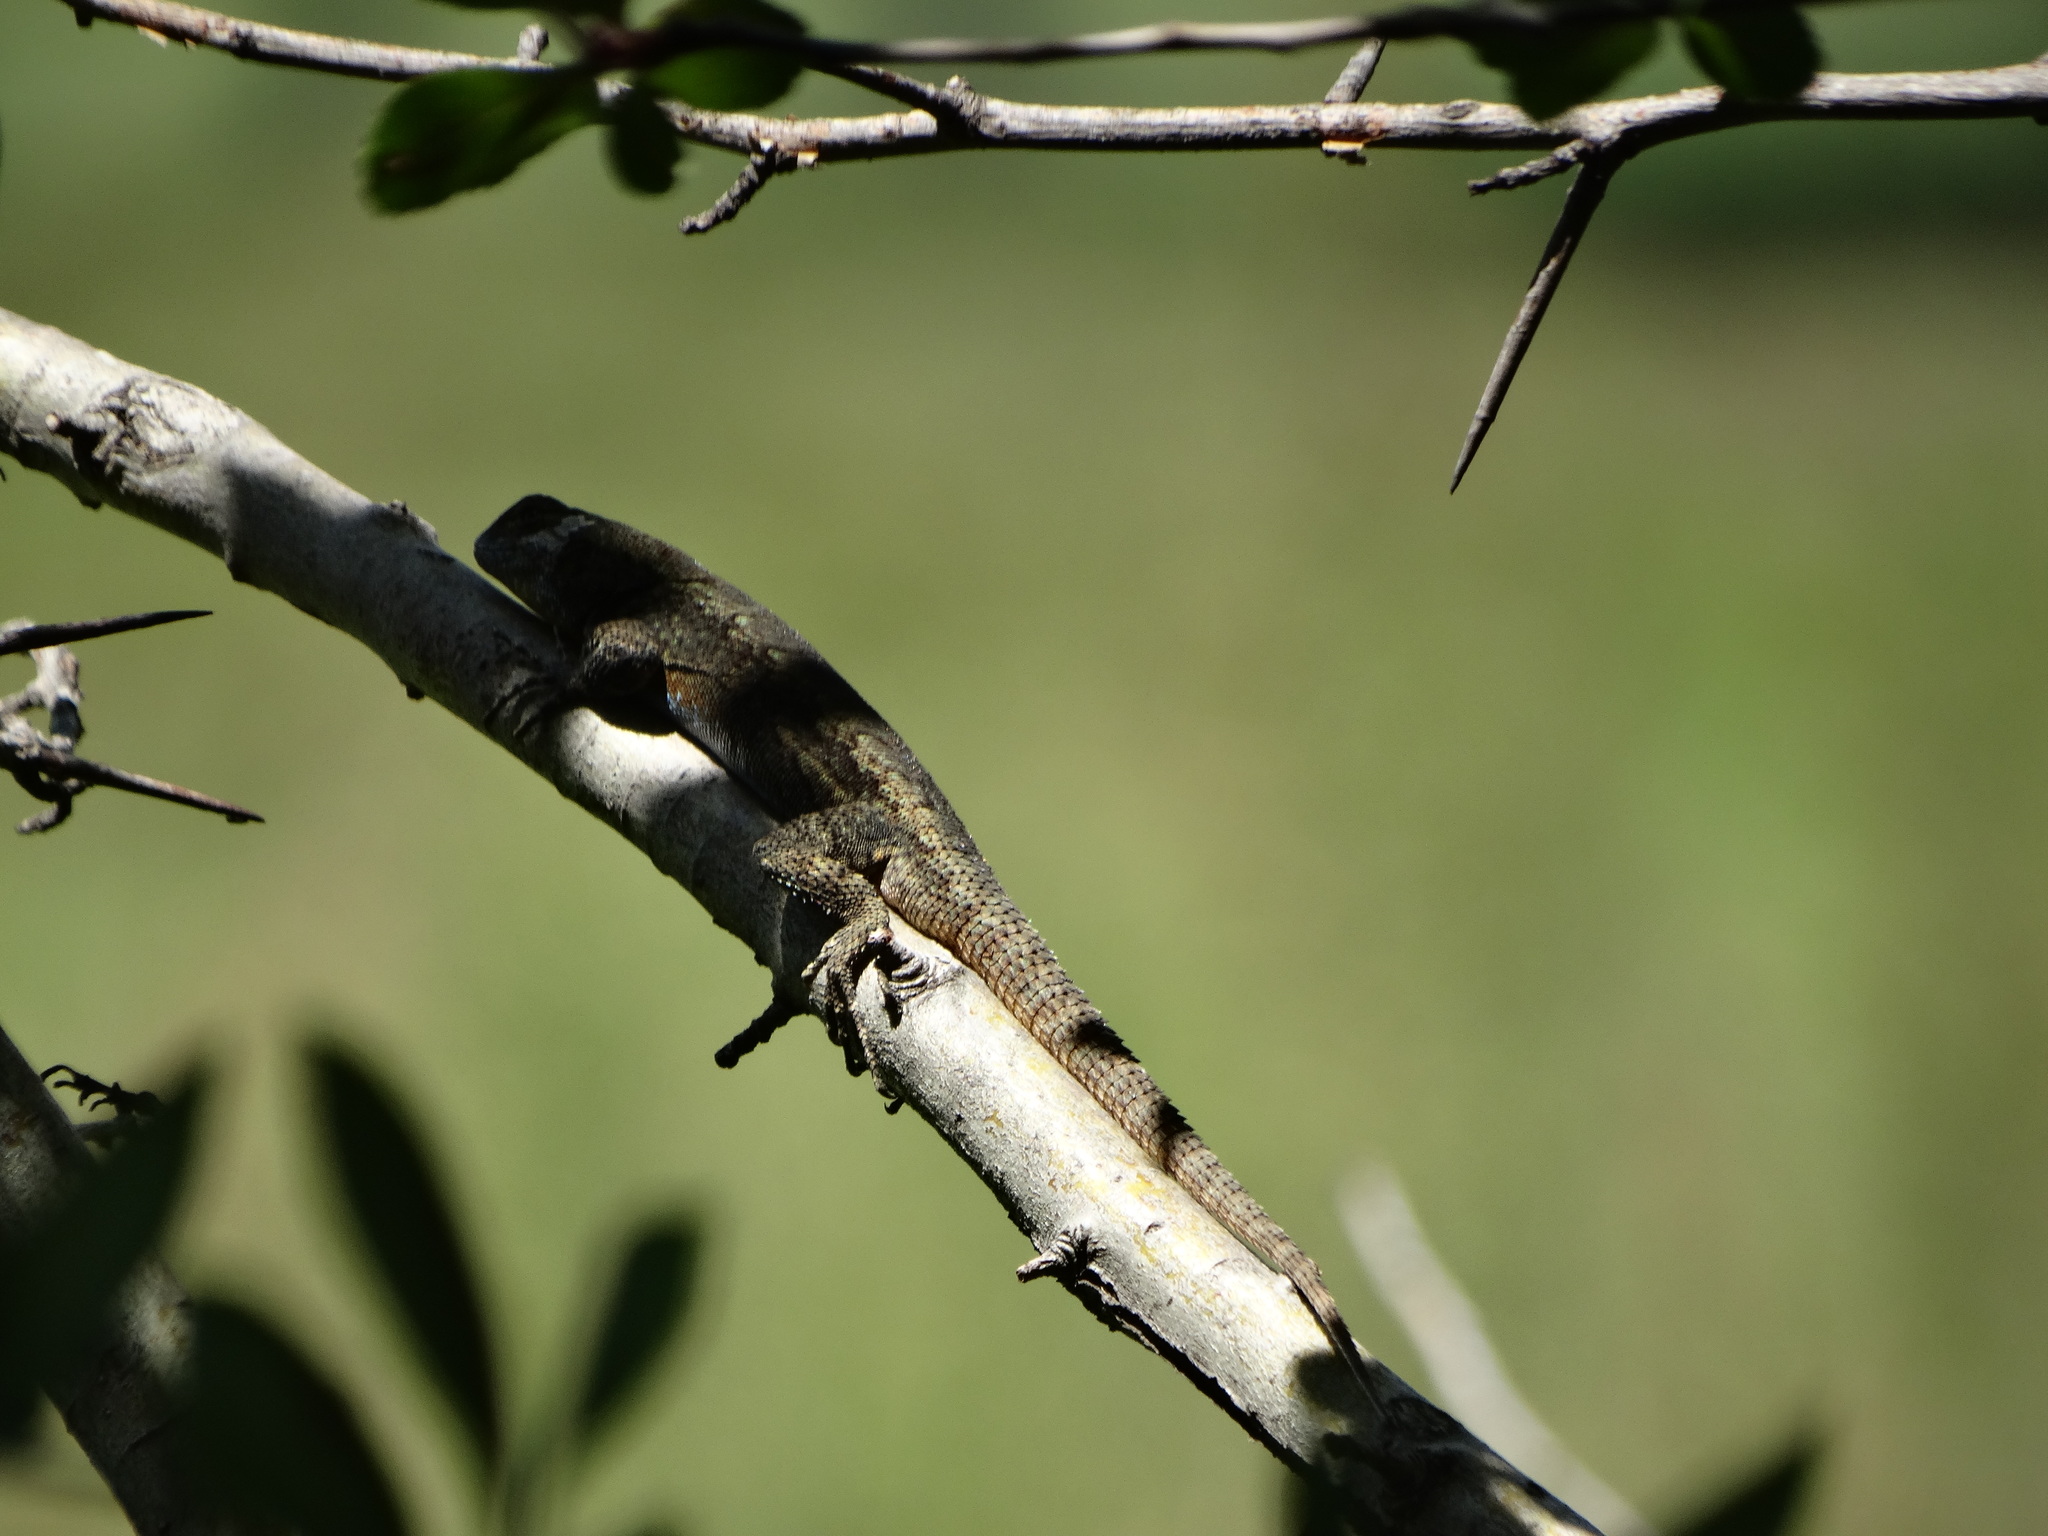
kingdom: Animalia
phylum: Chordata
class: Squamata
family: Phrynosomatidae
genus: Sceloporus
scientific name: Sceloporus grammicus
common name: Mesquite lizard
